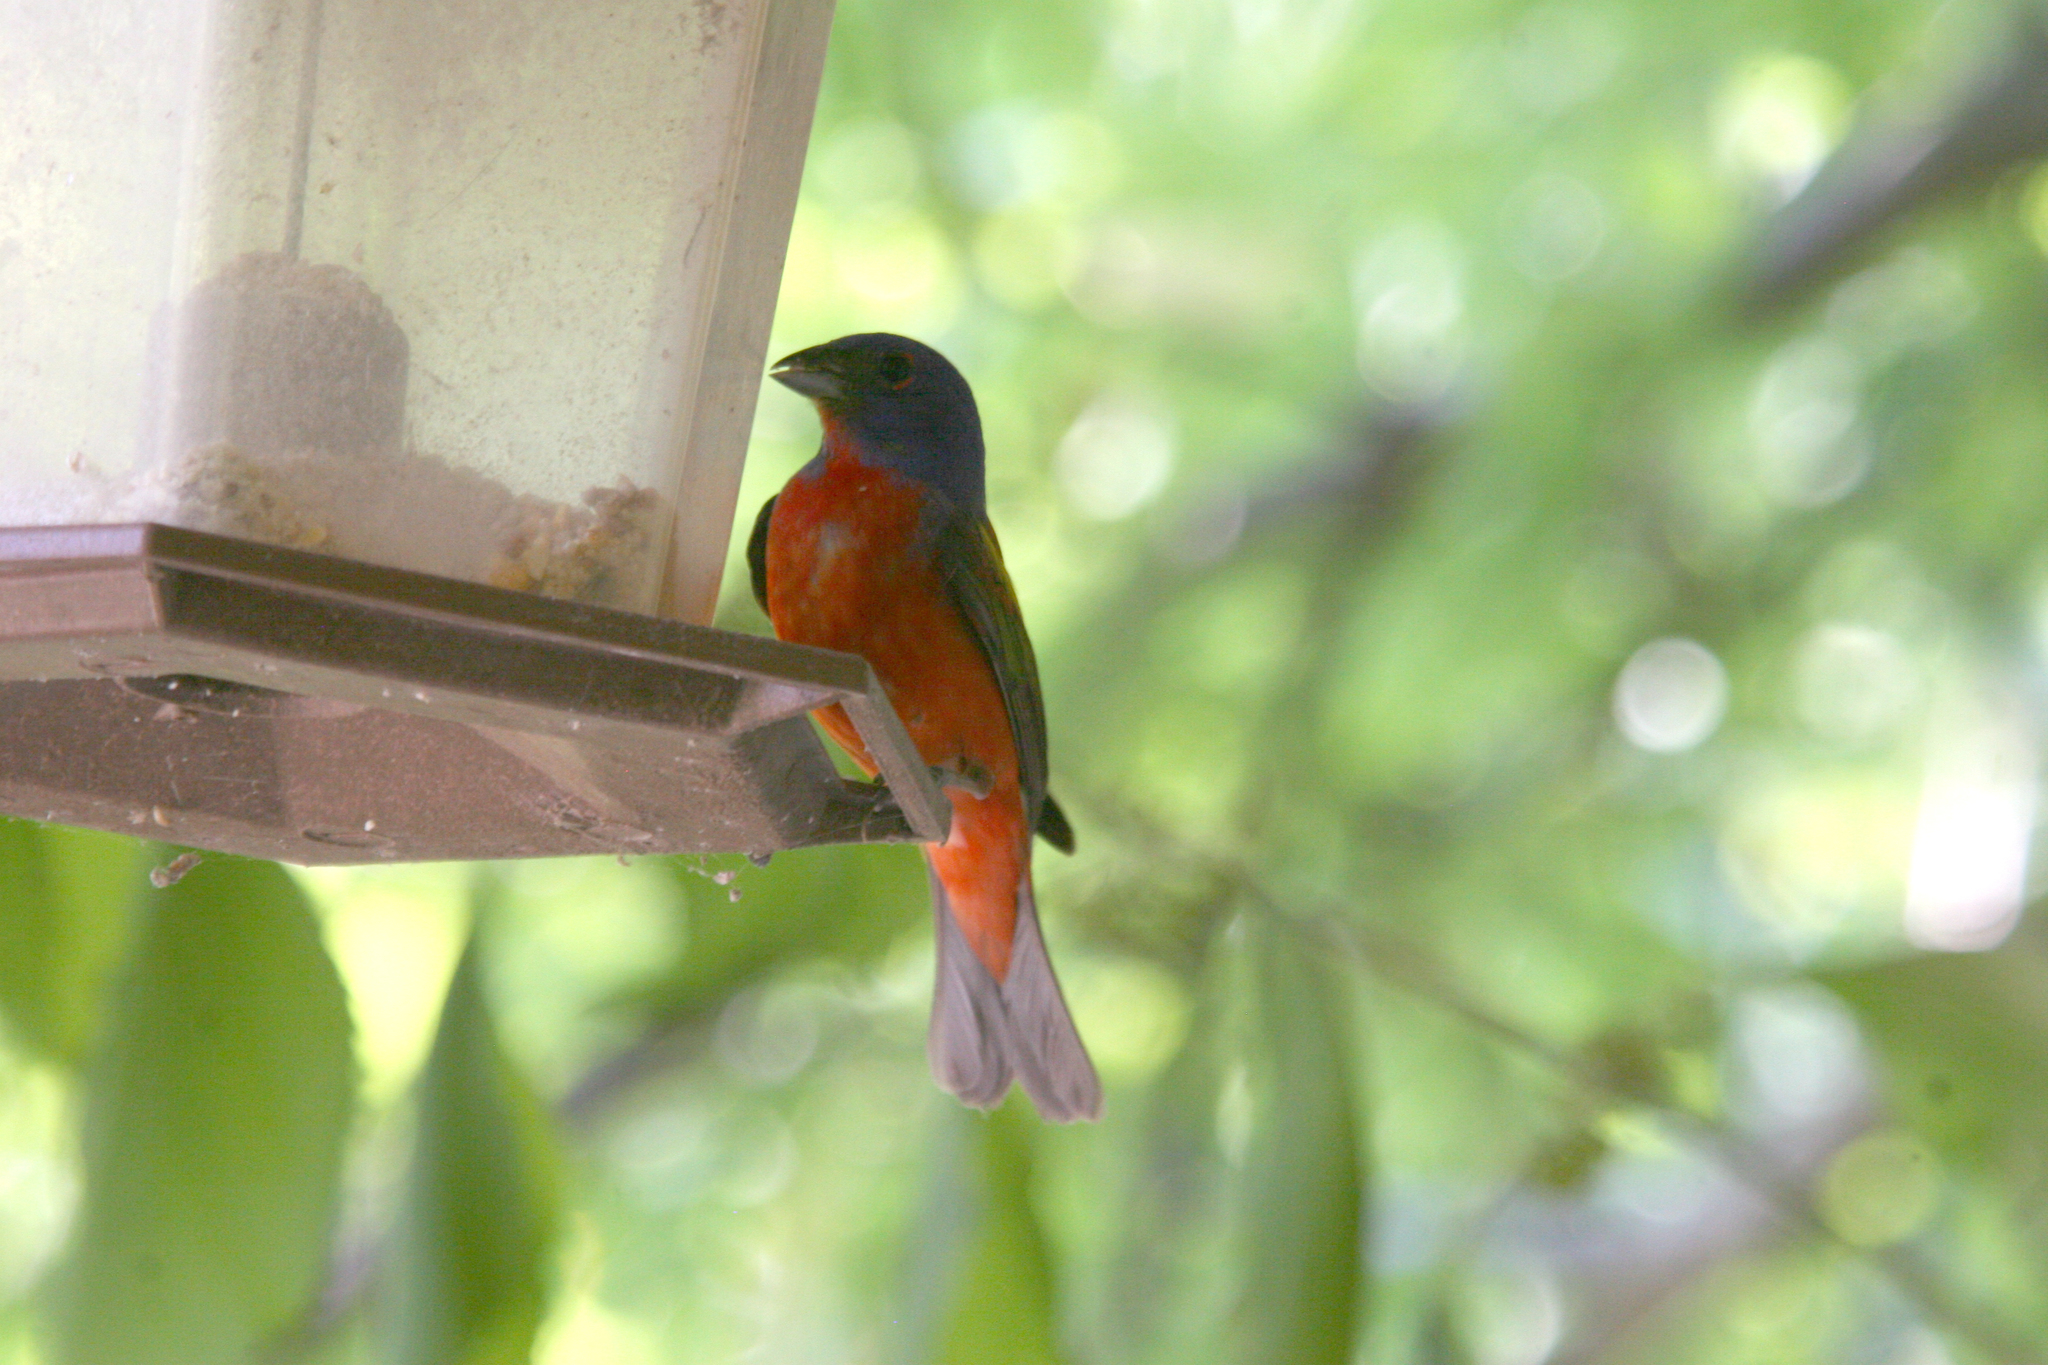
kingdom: Animalia
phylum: Chordata
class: Aves
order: Passeriformes
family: Cardinalidae
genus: Passerina
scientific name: Passerina ciris
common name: Painted bunting
